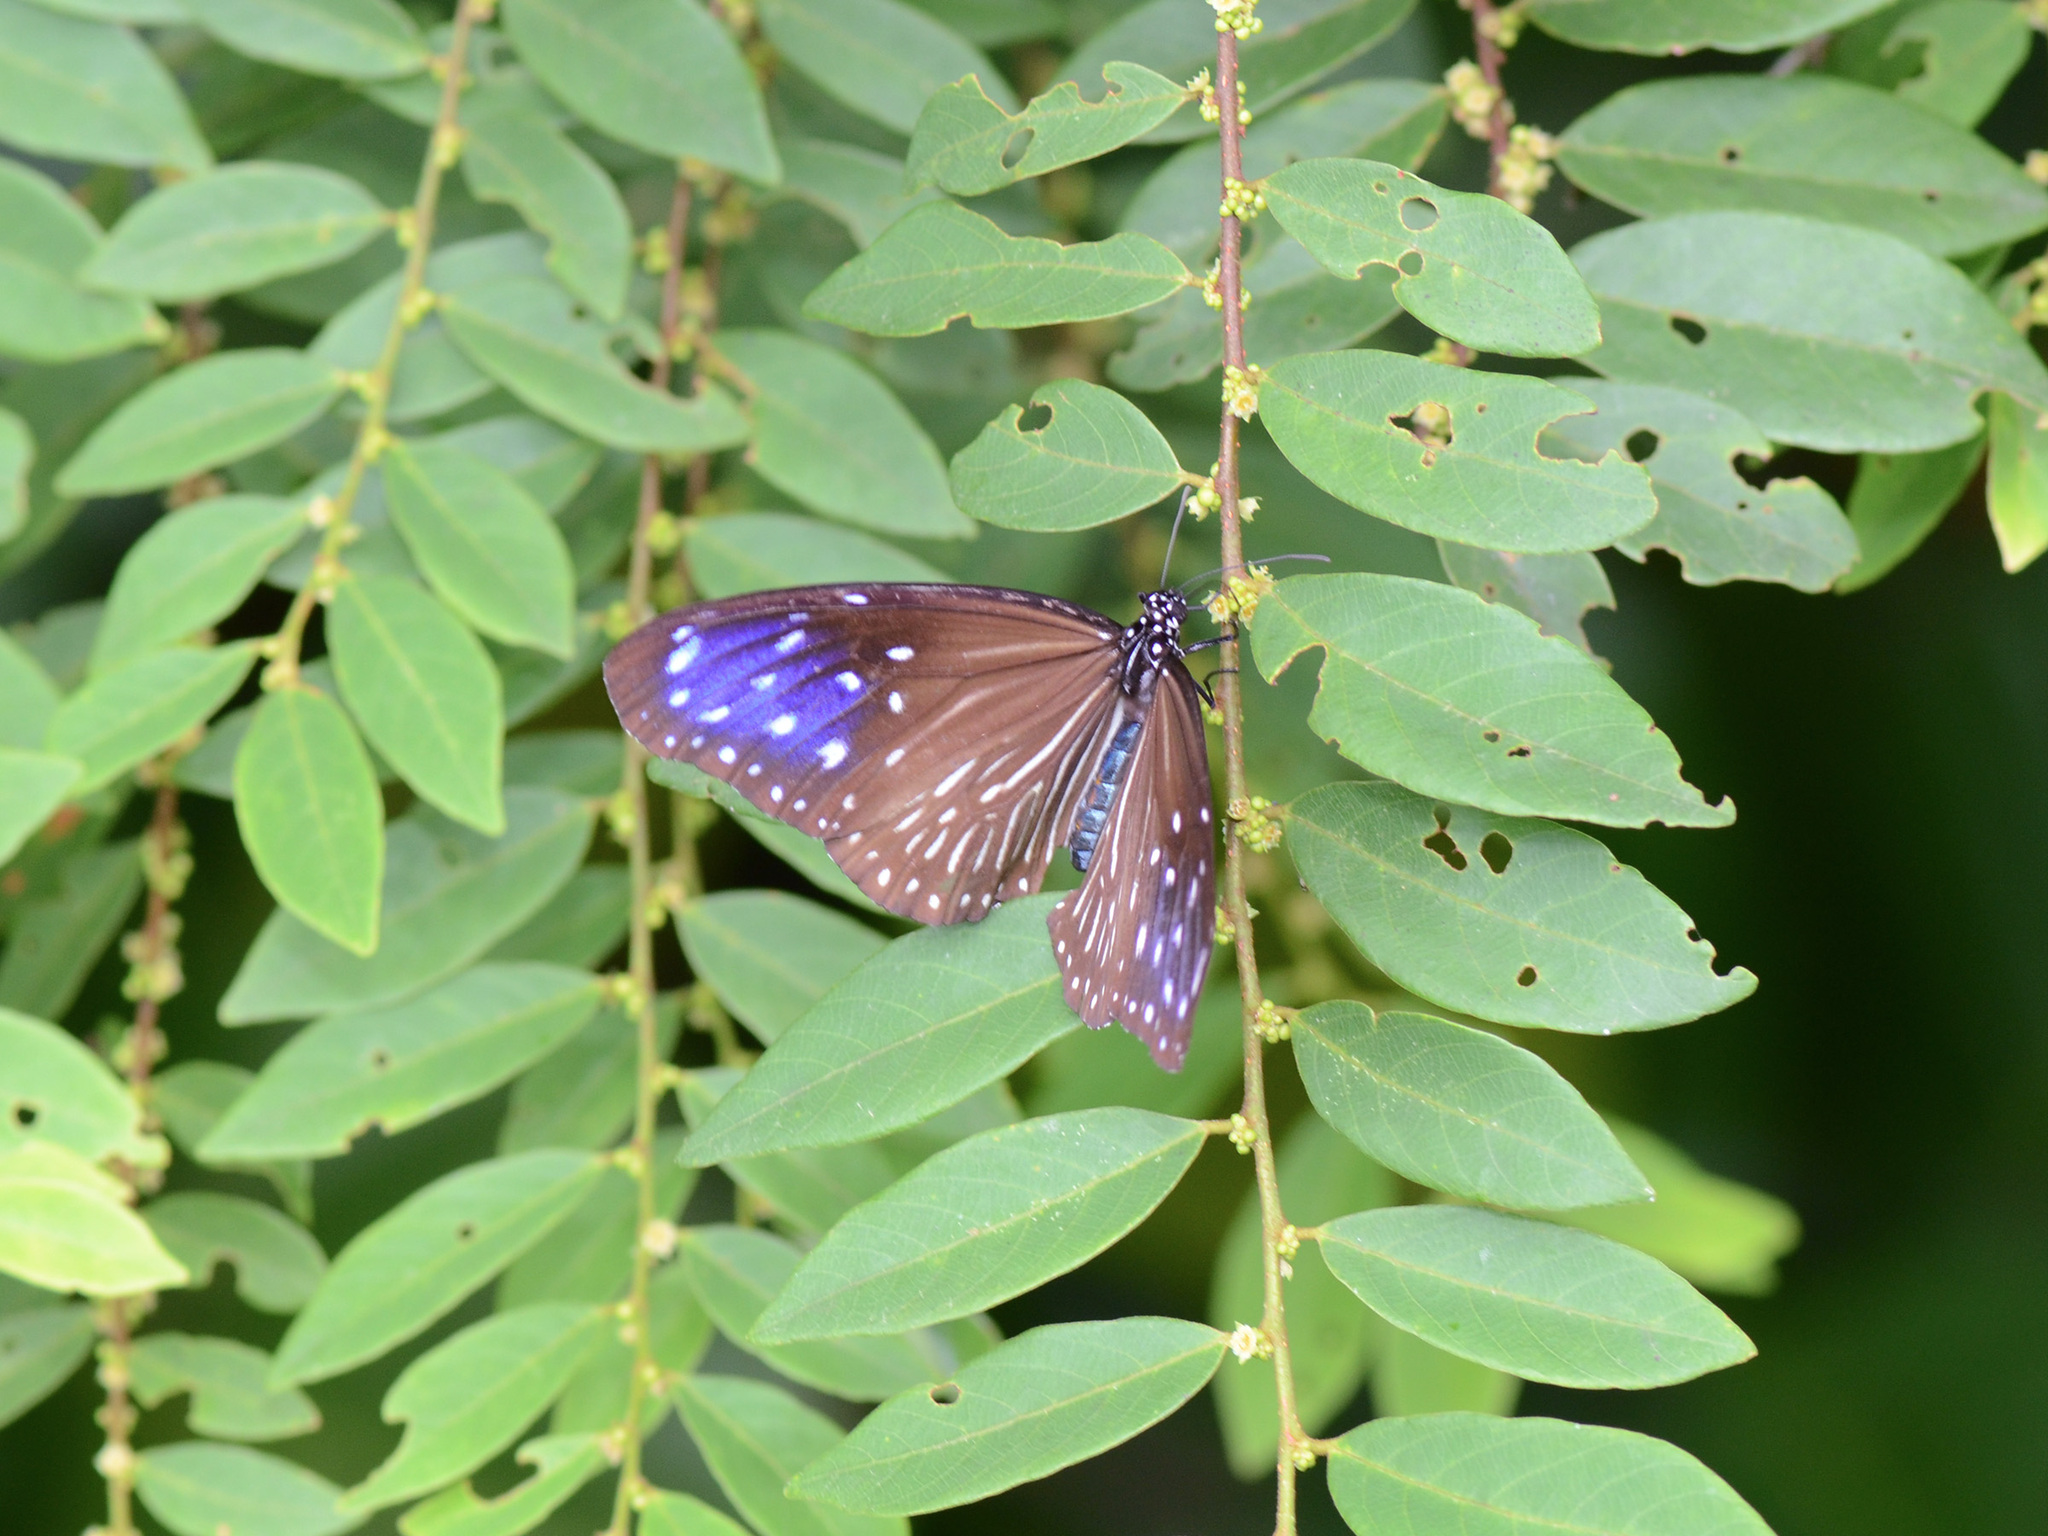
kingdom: Animalia
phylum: Arthropoda
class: Insecta
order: Lepidoptera
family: Nymphalidae
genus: Euploea
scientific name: Euploea mulciber
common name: Striped blue crow butterfly
